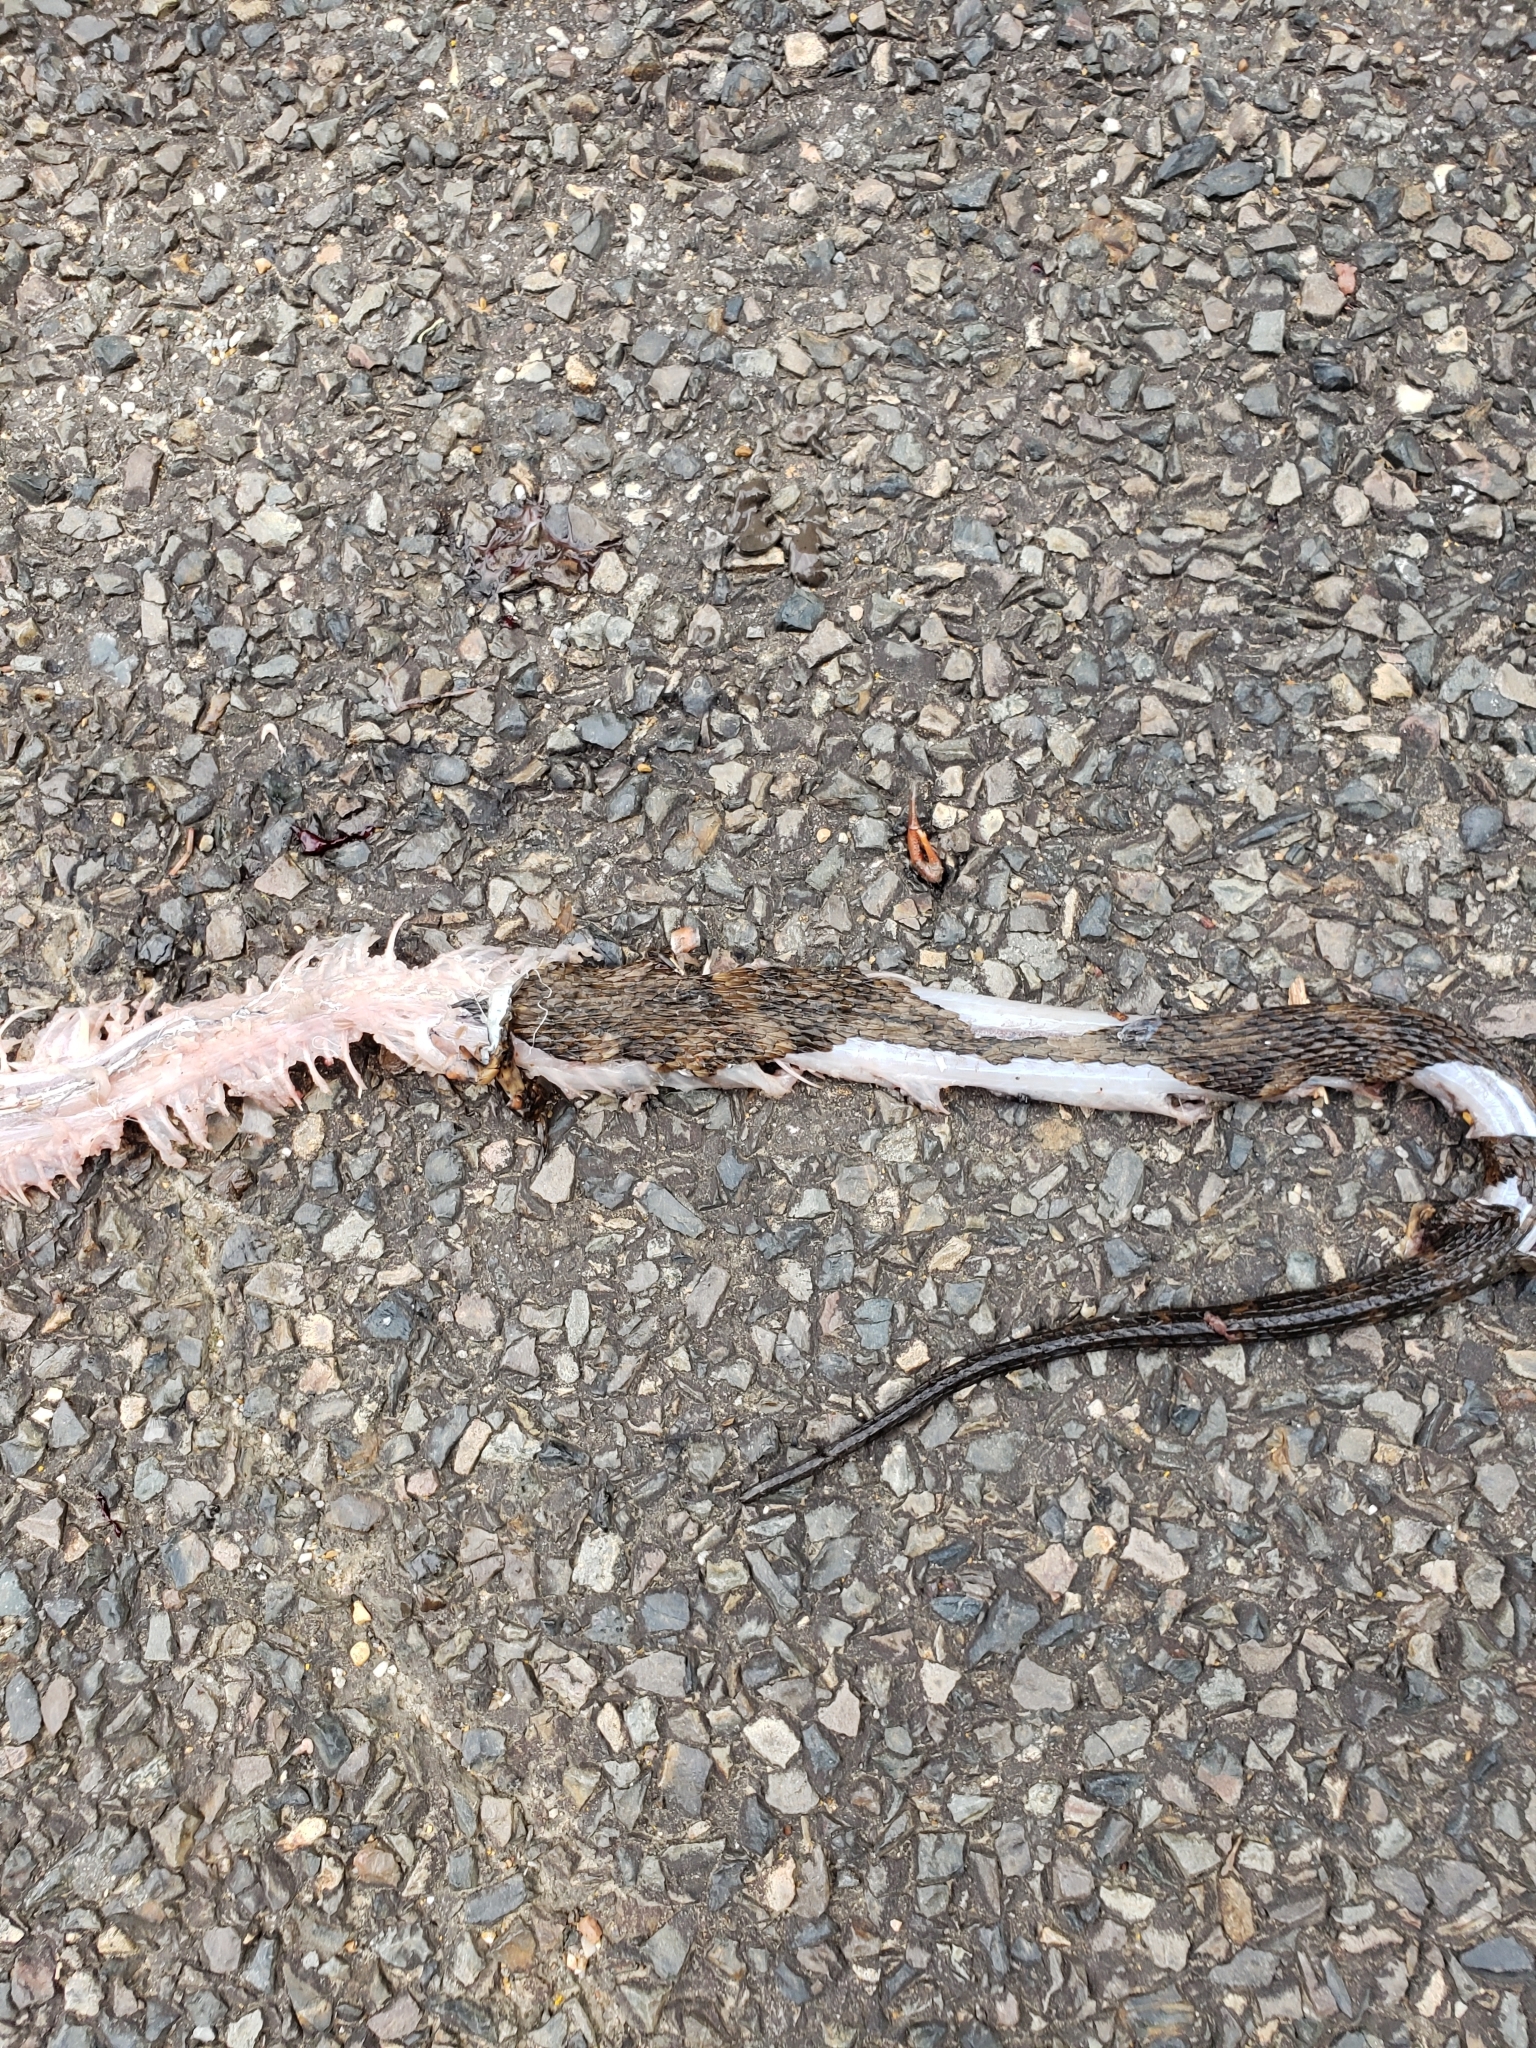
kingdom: Animalia
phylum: Chordata
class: Squamata
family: Colubridae
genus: Nerodia
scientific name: Nerodia fasciata
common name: Southern water snake
